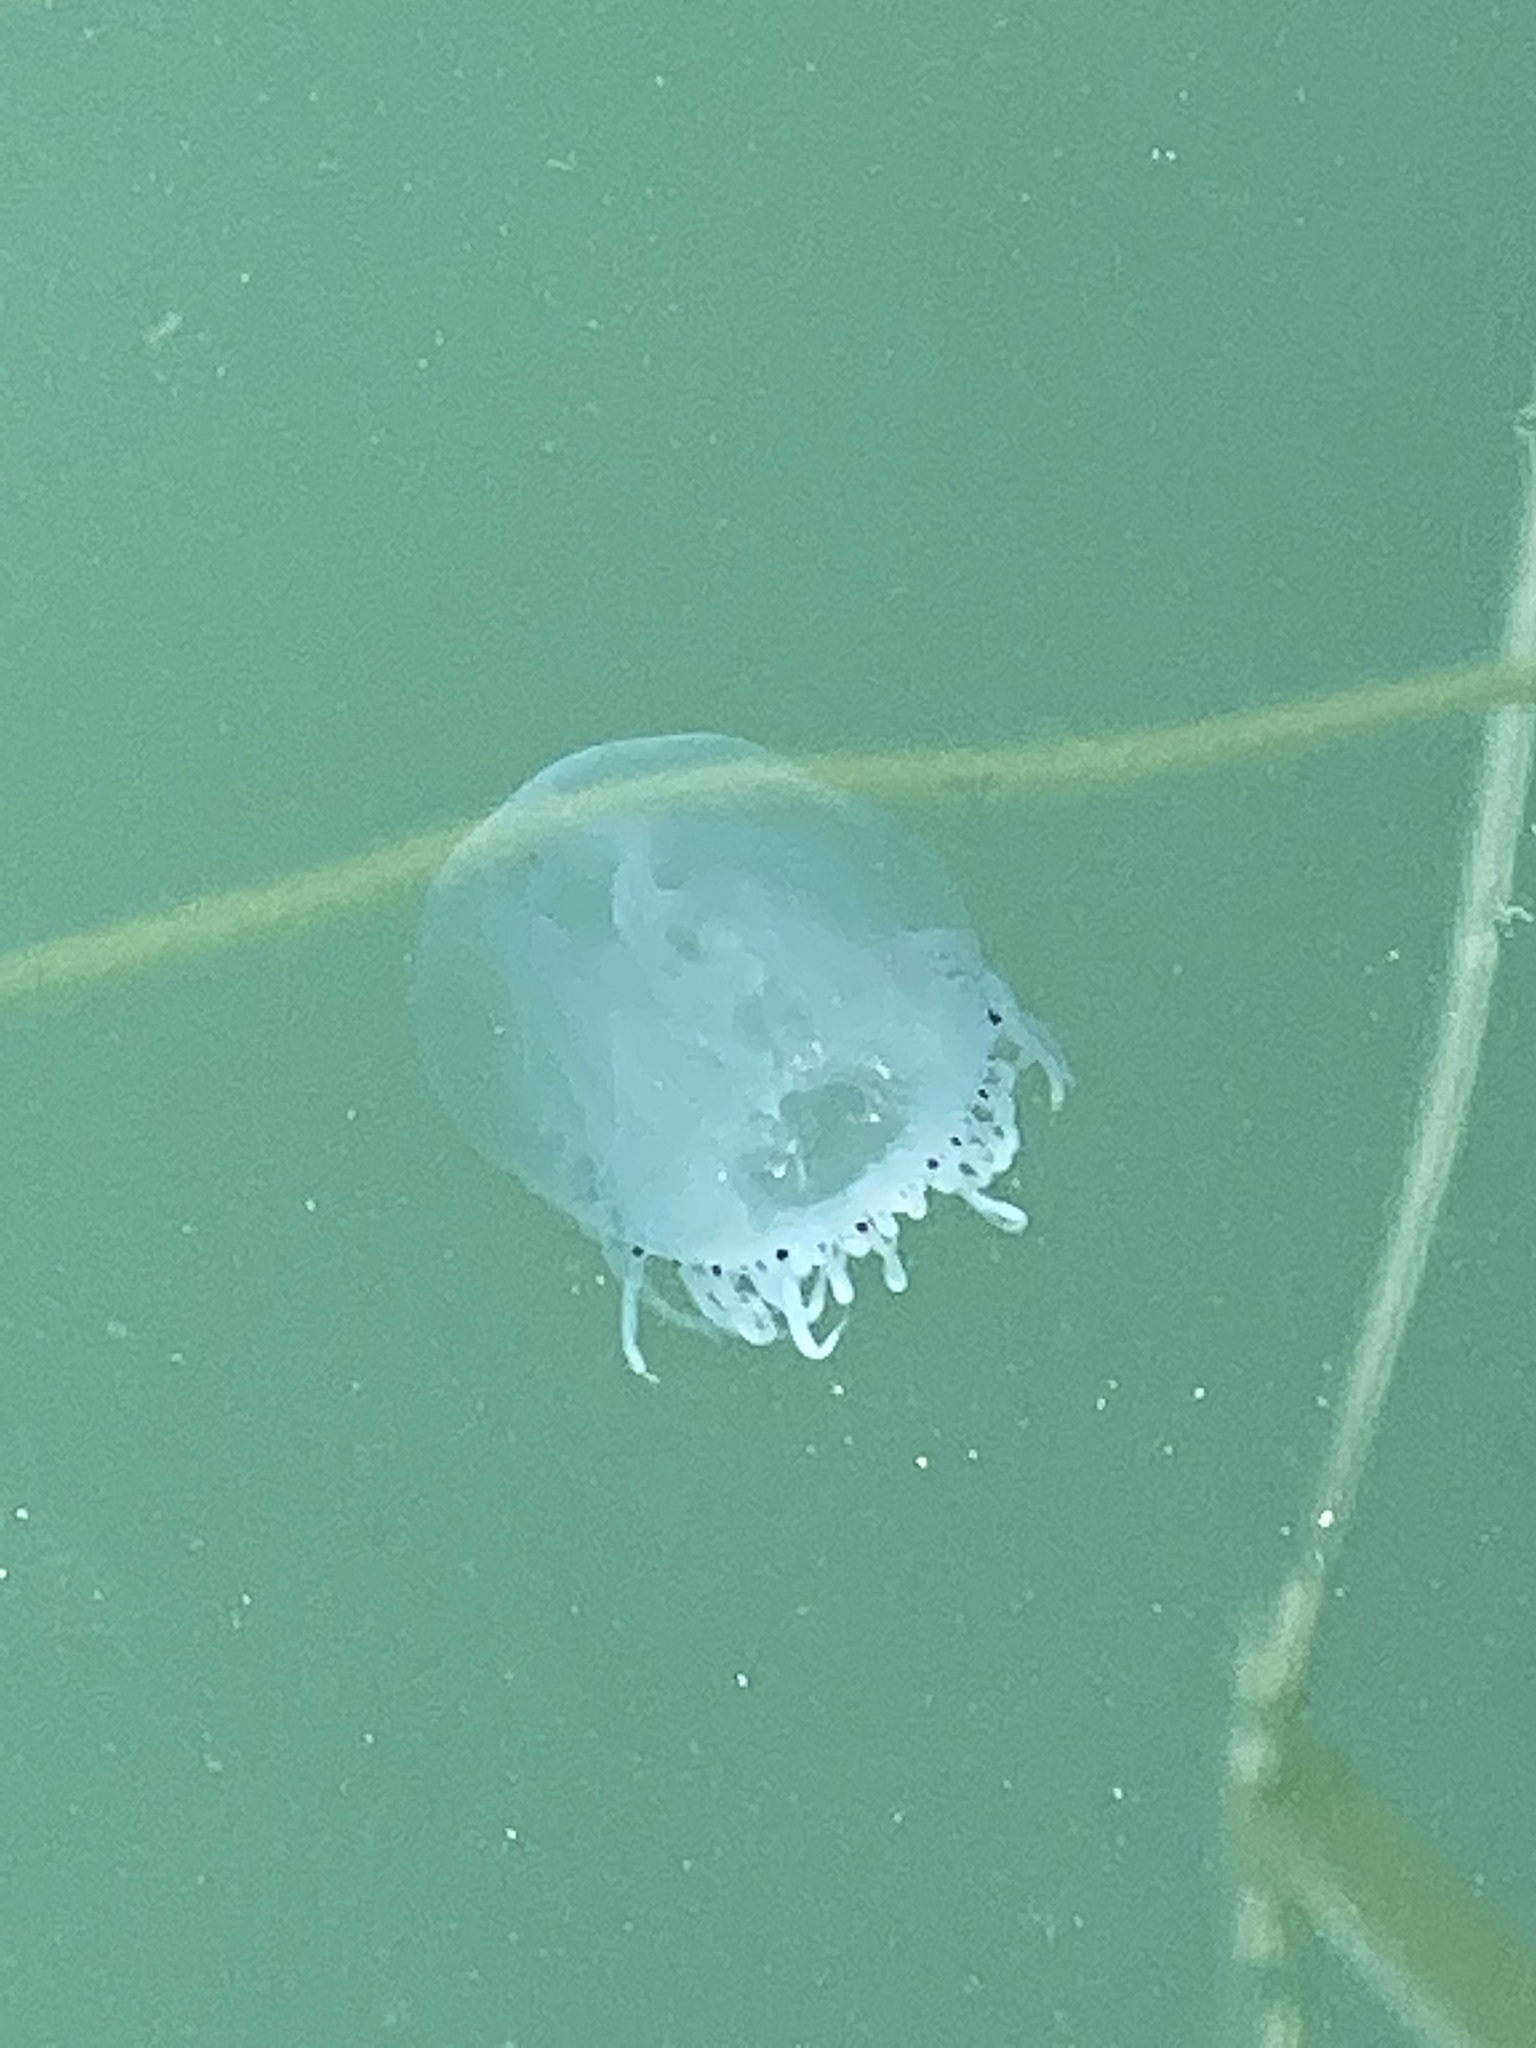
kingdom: Animalia
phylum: Cnidaria
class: Hydrozoa
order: Anthoathecata
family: Corynidae
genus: Scrippsia
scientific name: Scrippsia pacifica
